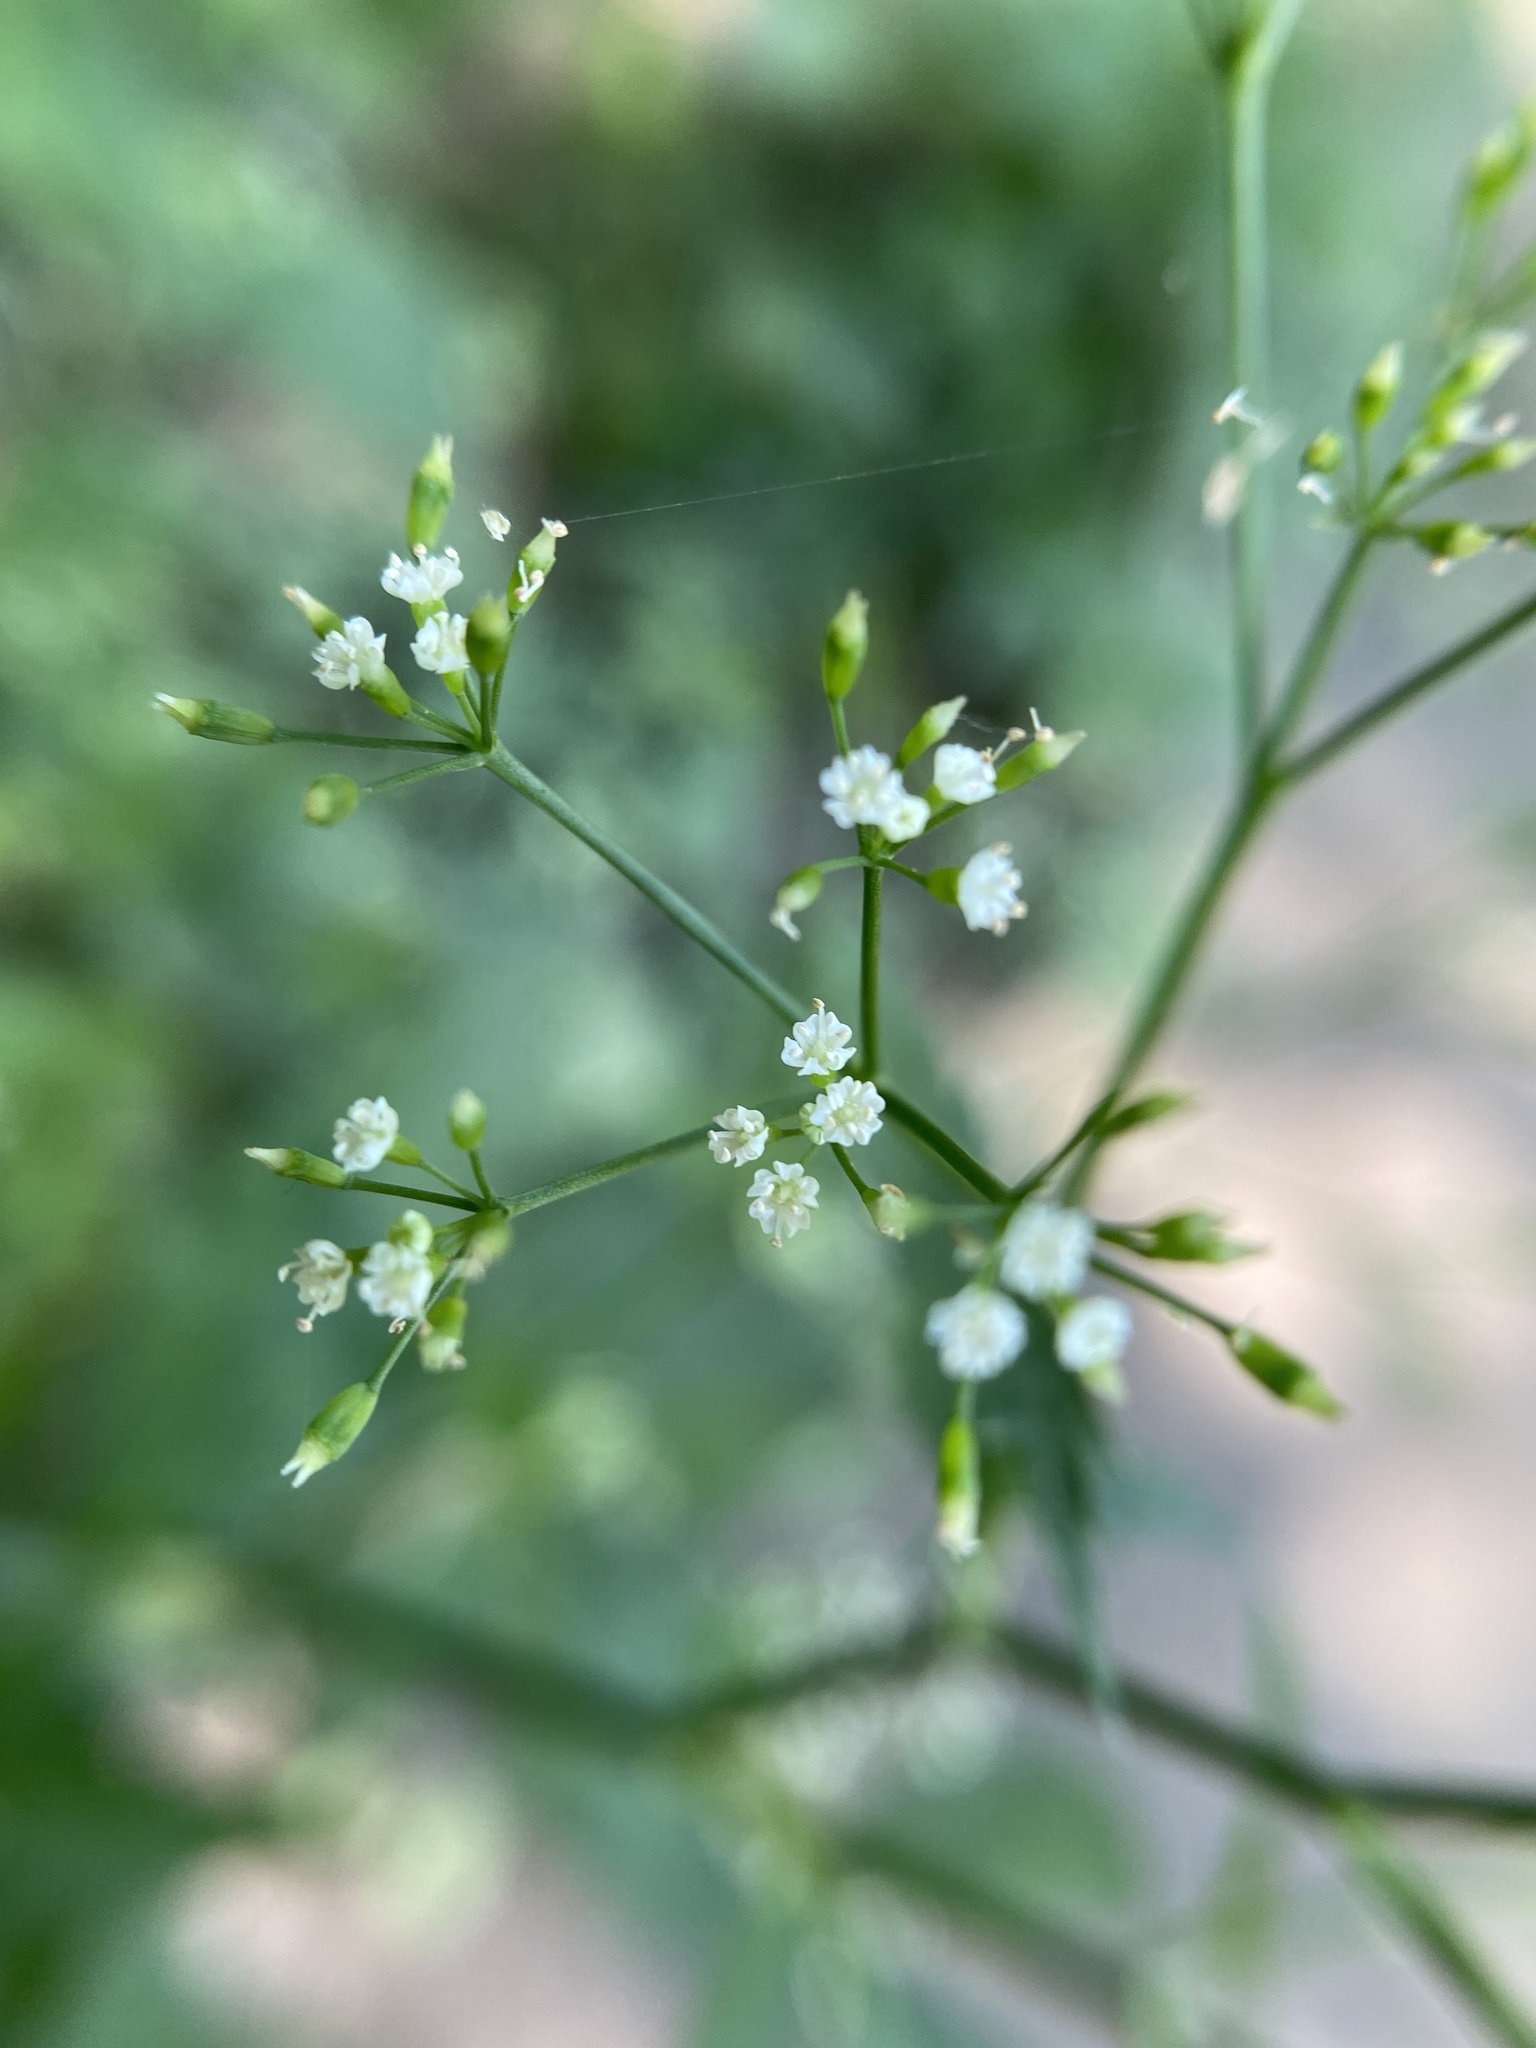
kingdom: Plantae
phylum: Tracheophyta
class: Magnoliopsida
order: Apiales
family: Apiaceae
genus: Cryptotaenia
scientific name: Cryptotaenia canadensis
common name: Honewort
